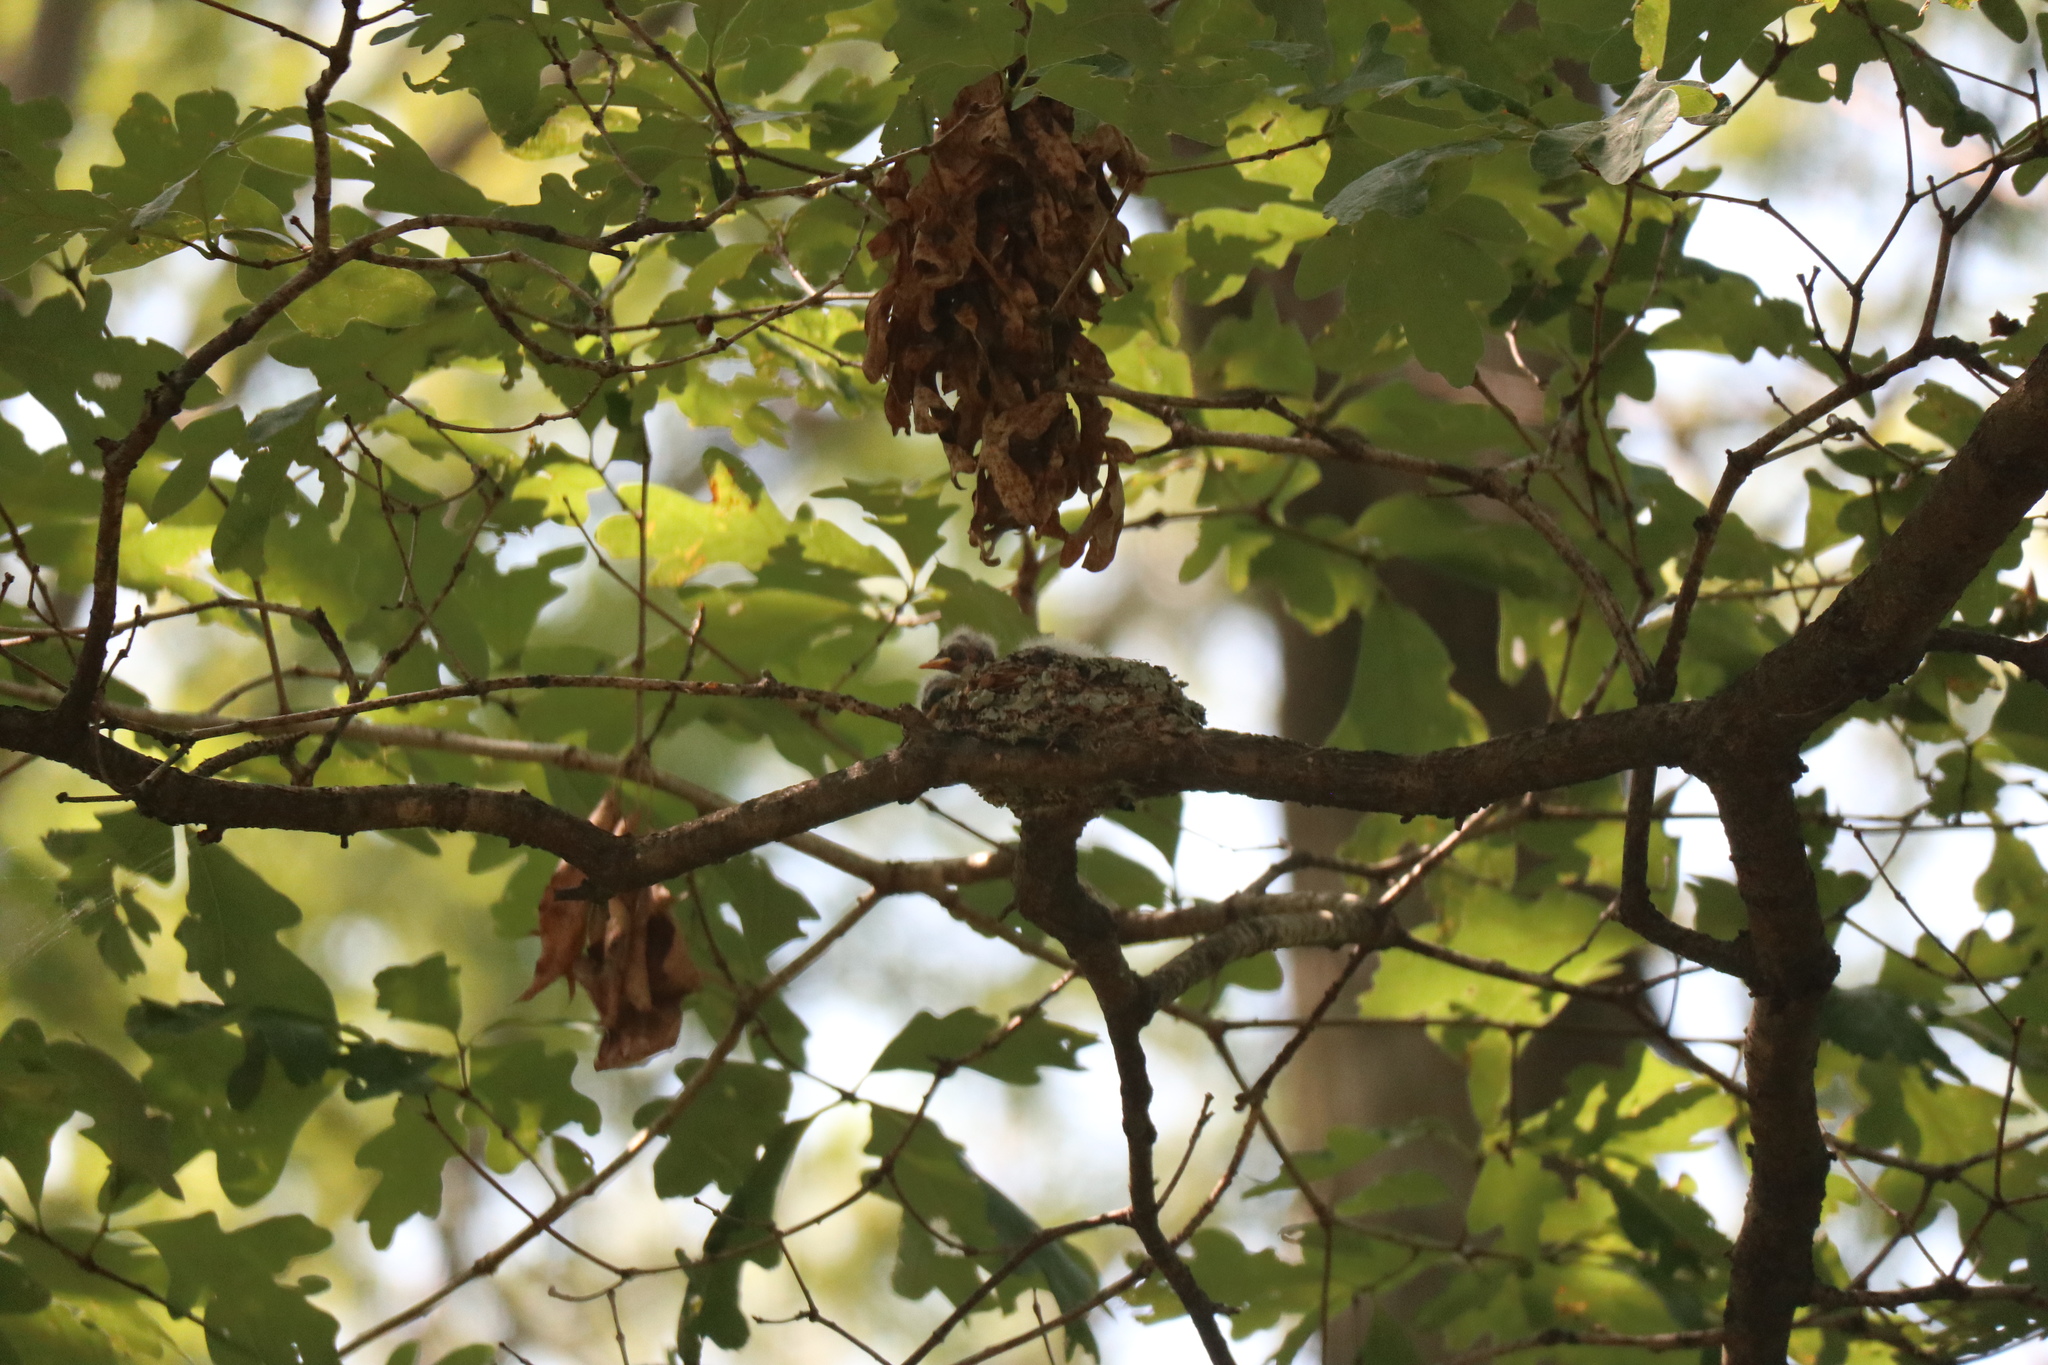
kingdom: Animalia
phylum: Chordata
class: Aves
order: Passeriformes
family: Tyrannidae
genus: Contopus
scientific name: Contopus virens
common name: Eastern wood-pewee
